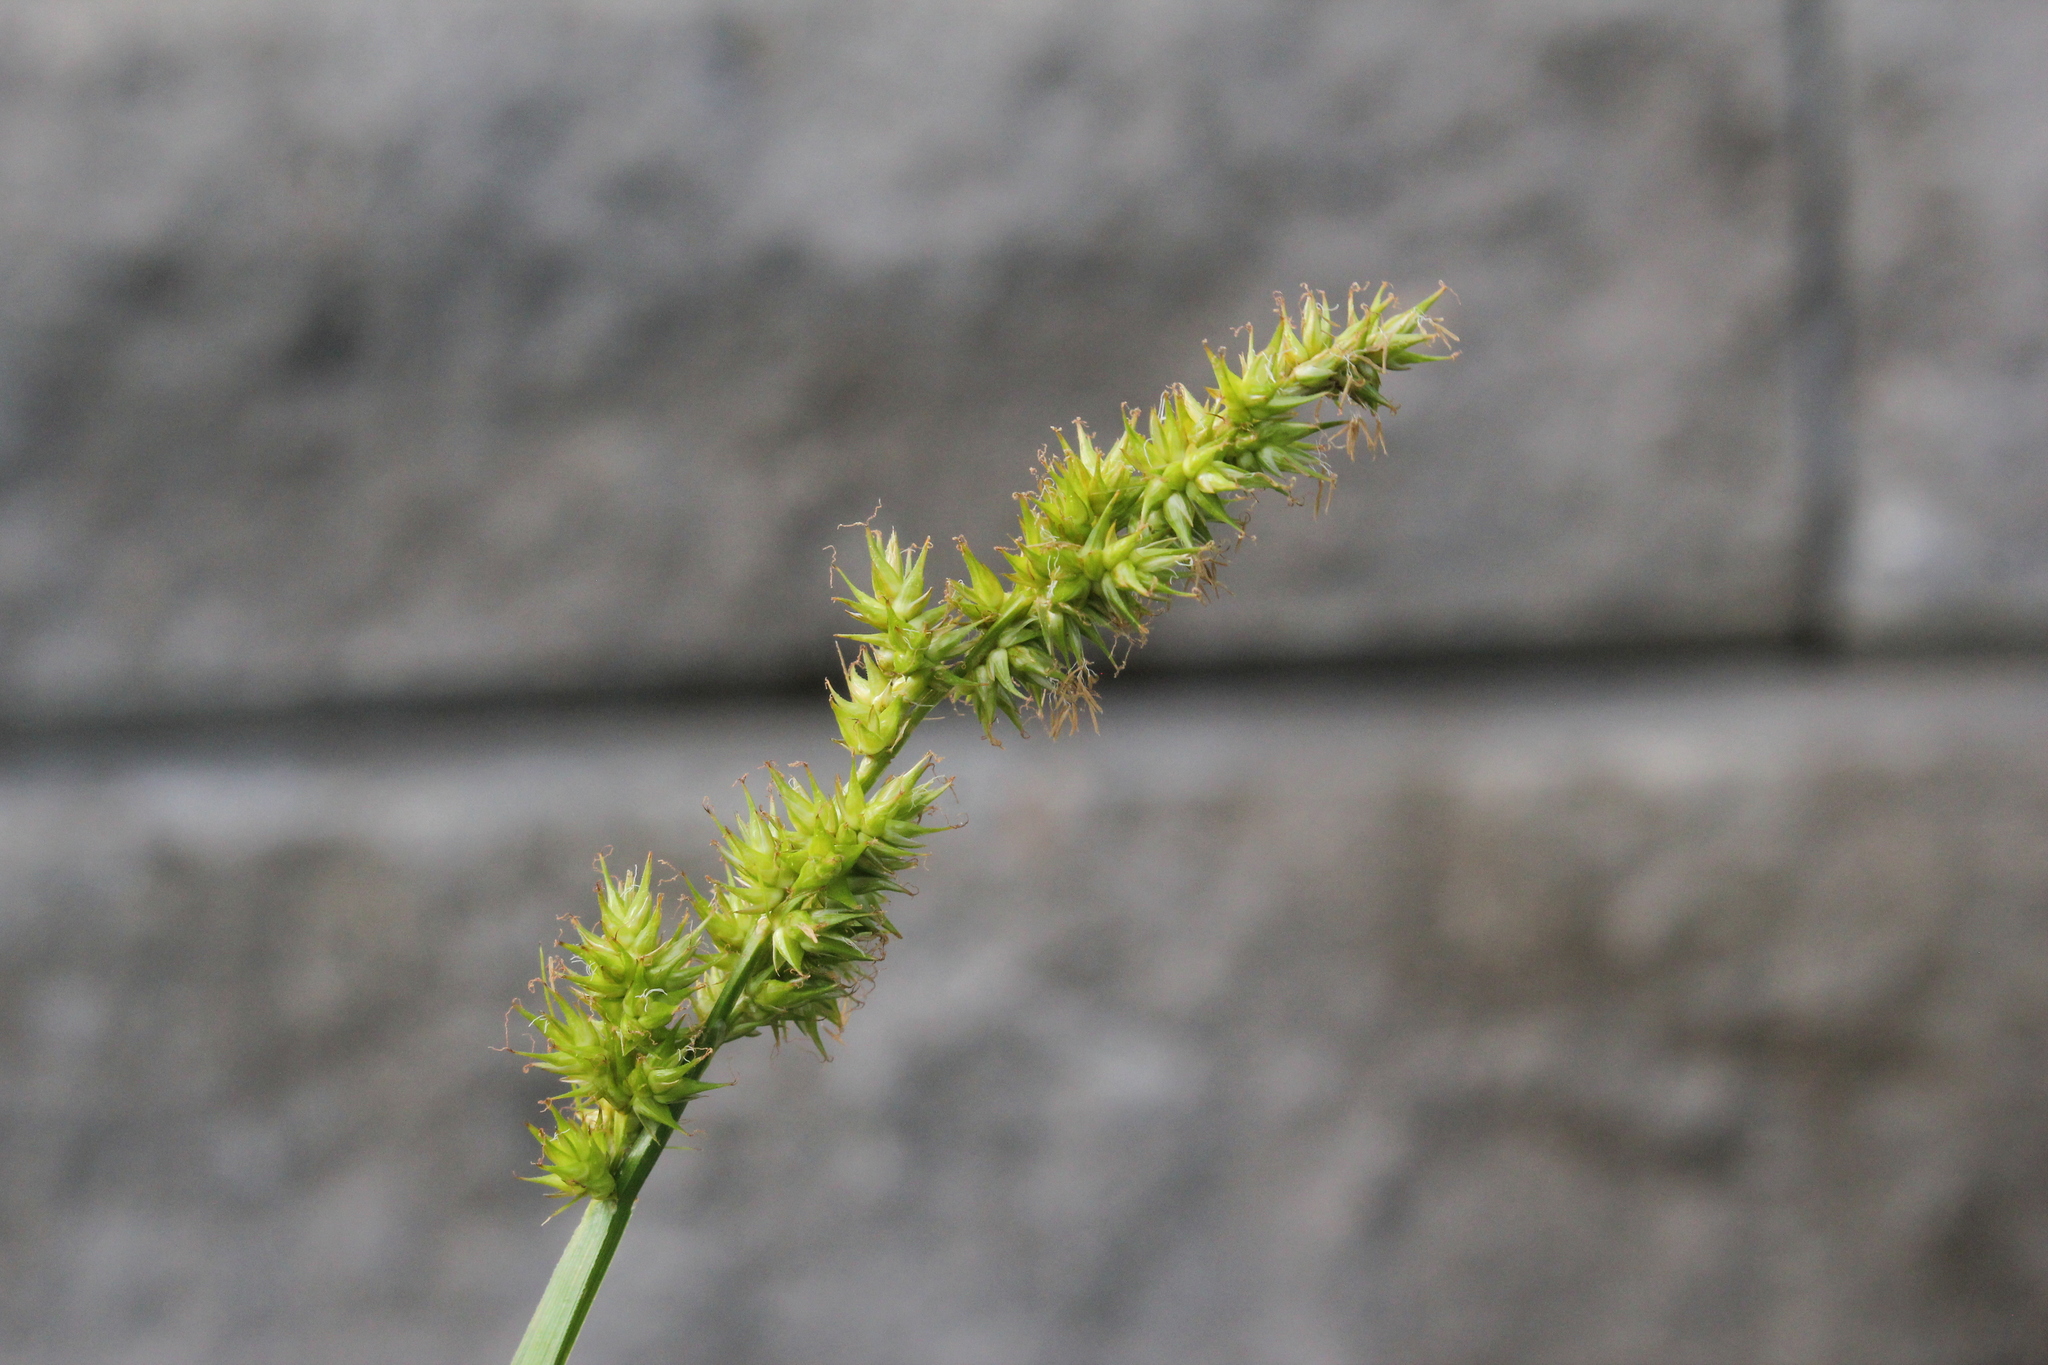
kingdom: Plantae
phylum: Tracheophyta
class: Liliopsida
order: Poales
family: Cyperaceae
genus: Carex
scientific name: Carex stipata
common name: Awl-fruited sedge
